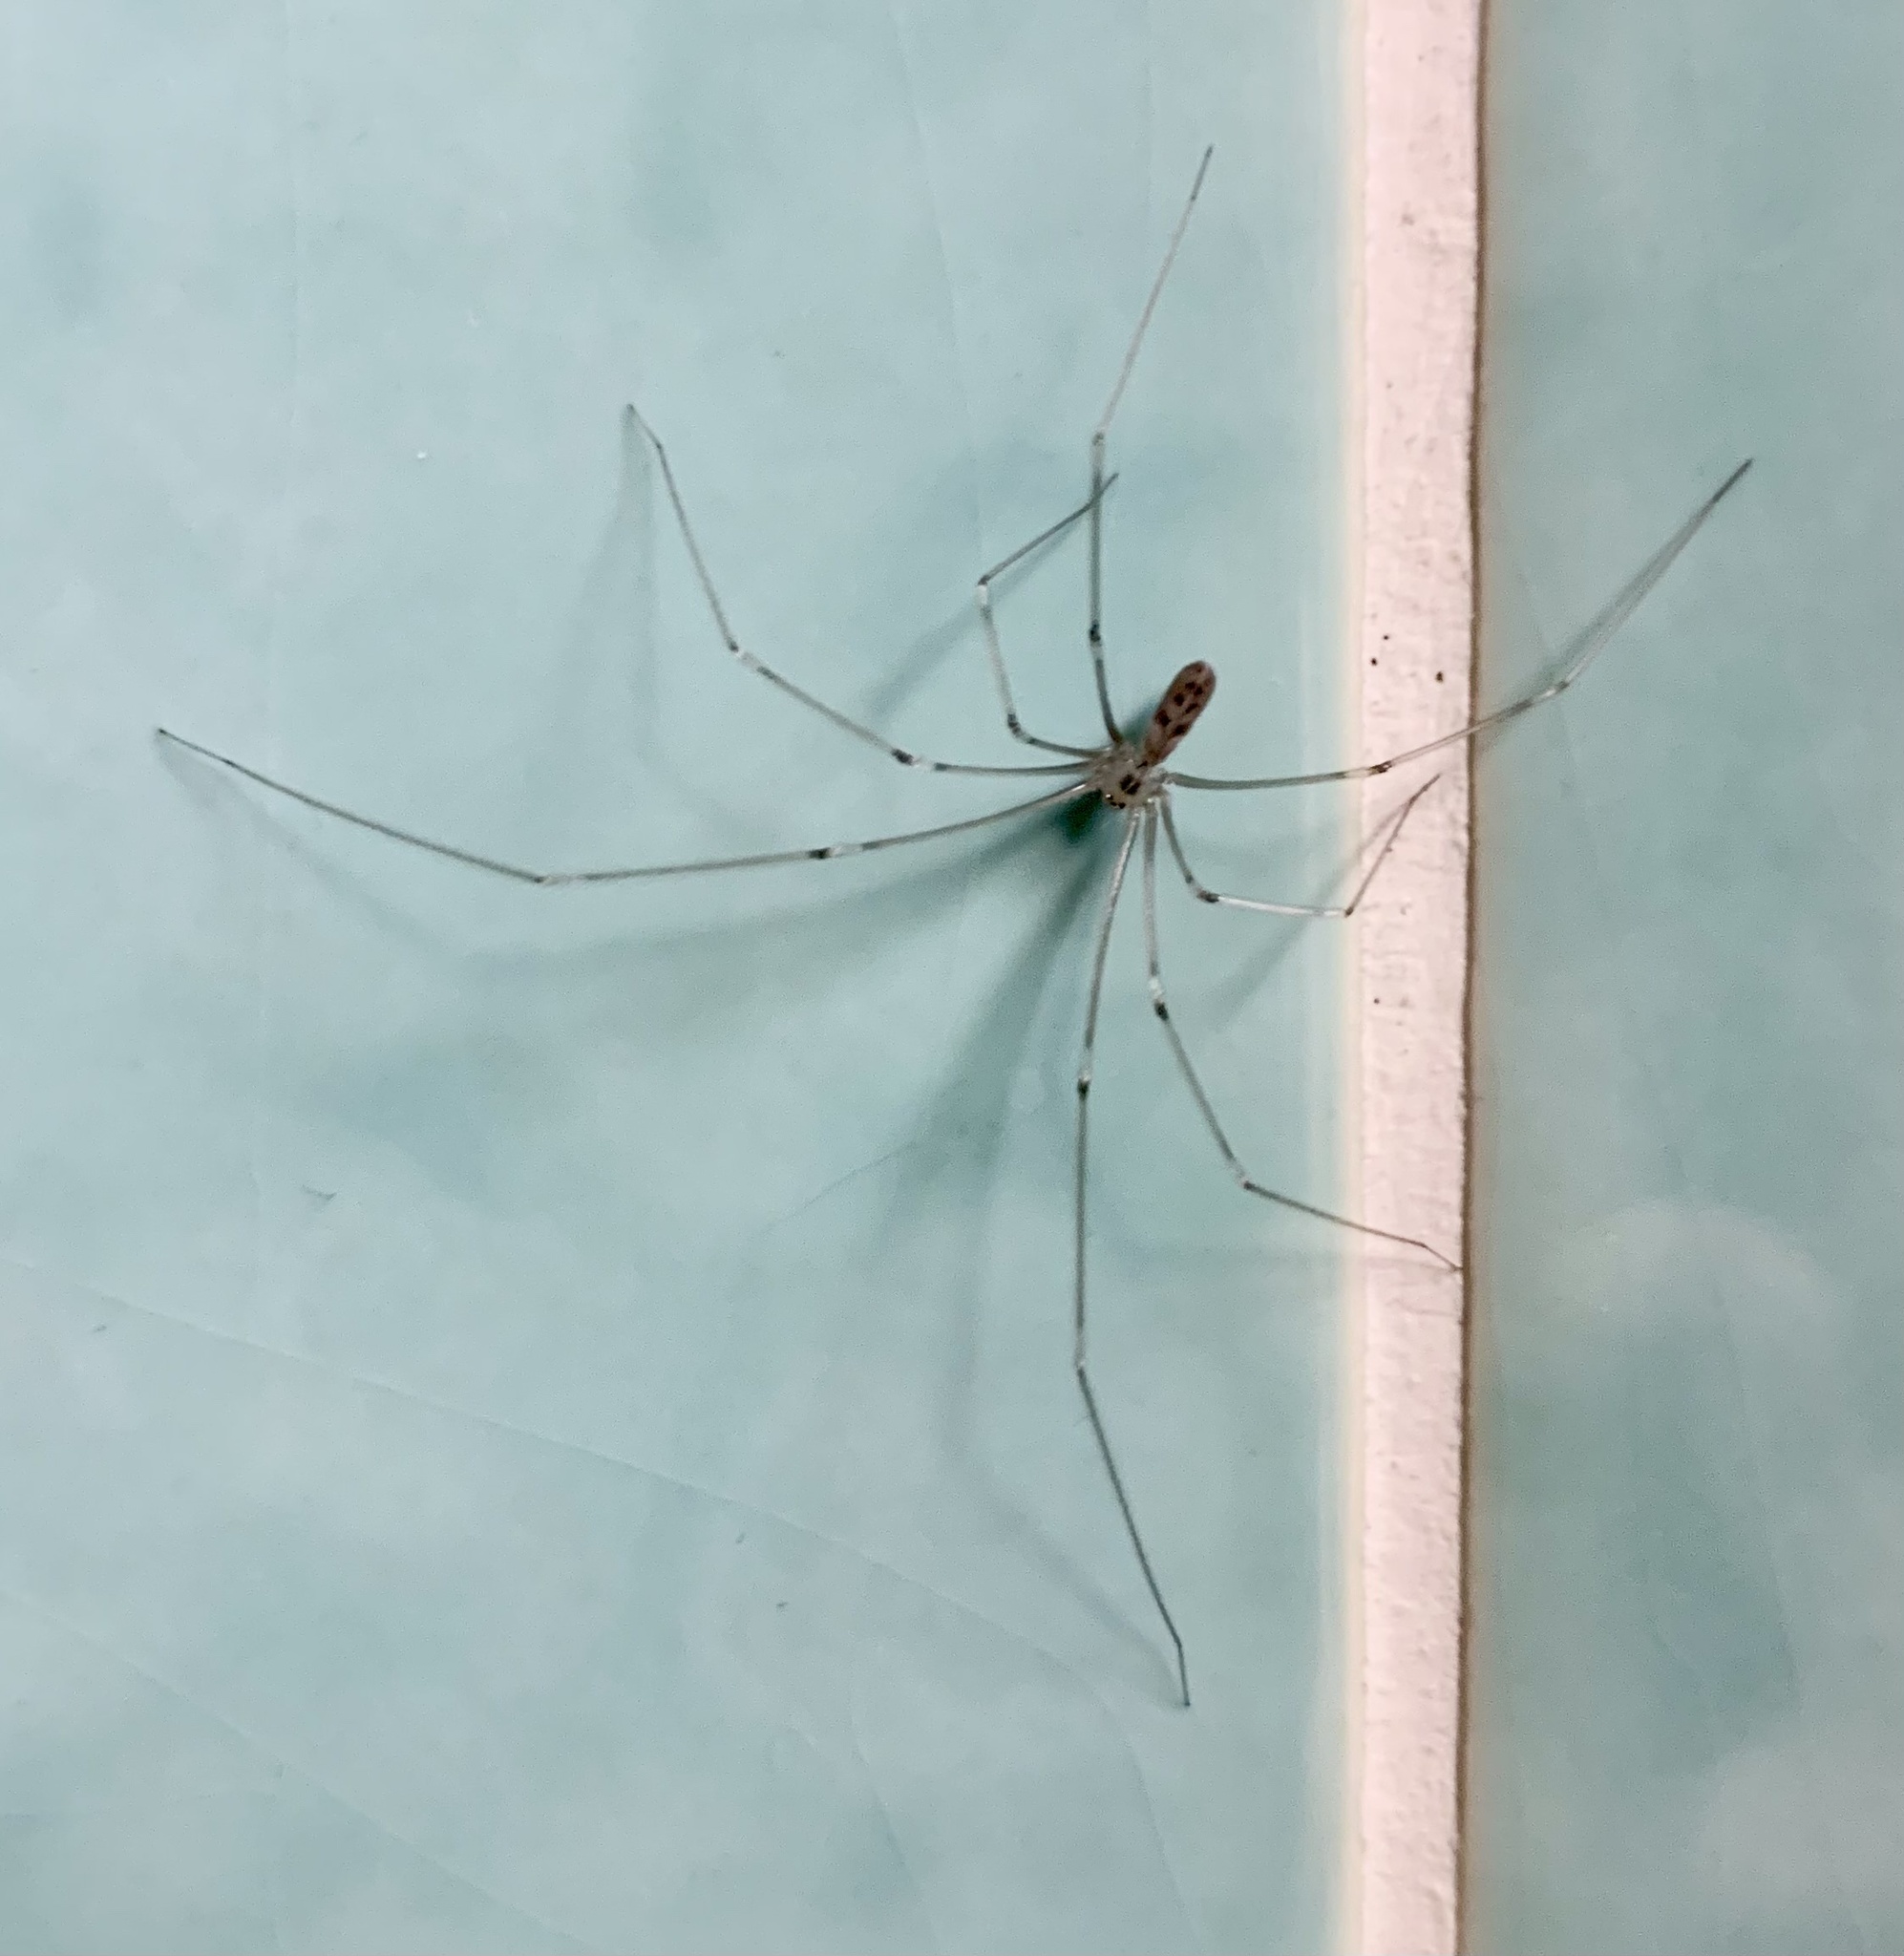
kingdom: Animalia
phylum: Arthropoda
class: Arachnida
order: Araneae
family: Pholcidae
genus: Pholcus
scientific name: Pholcus phalangioides
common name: Longbodied cellar spider
